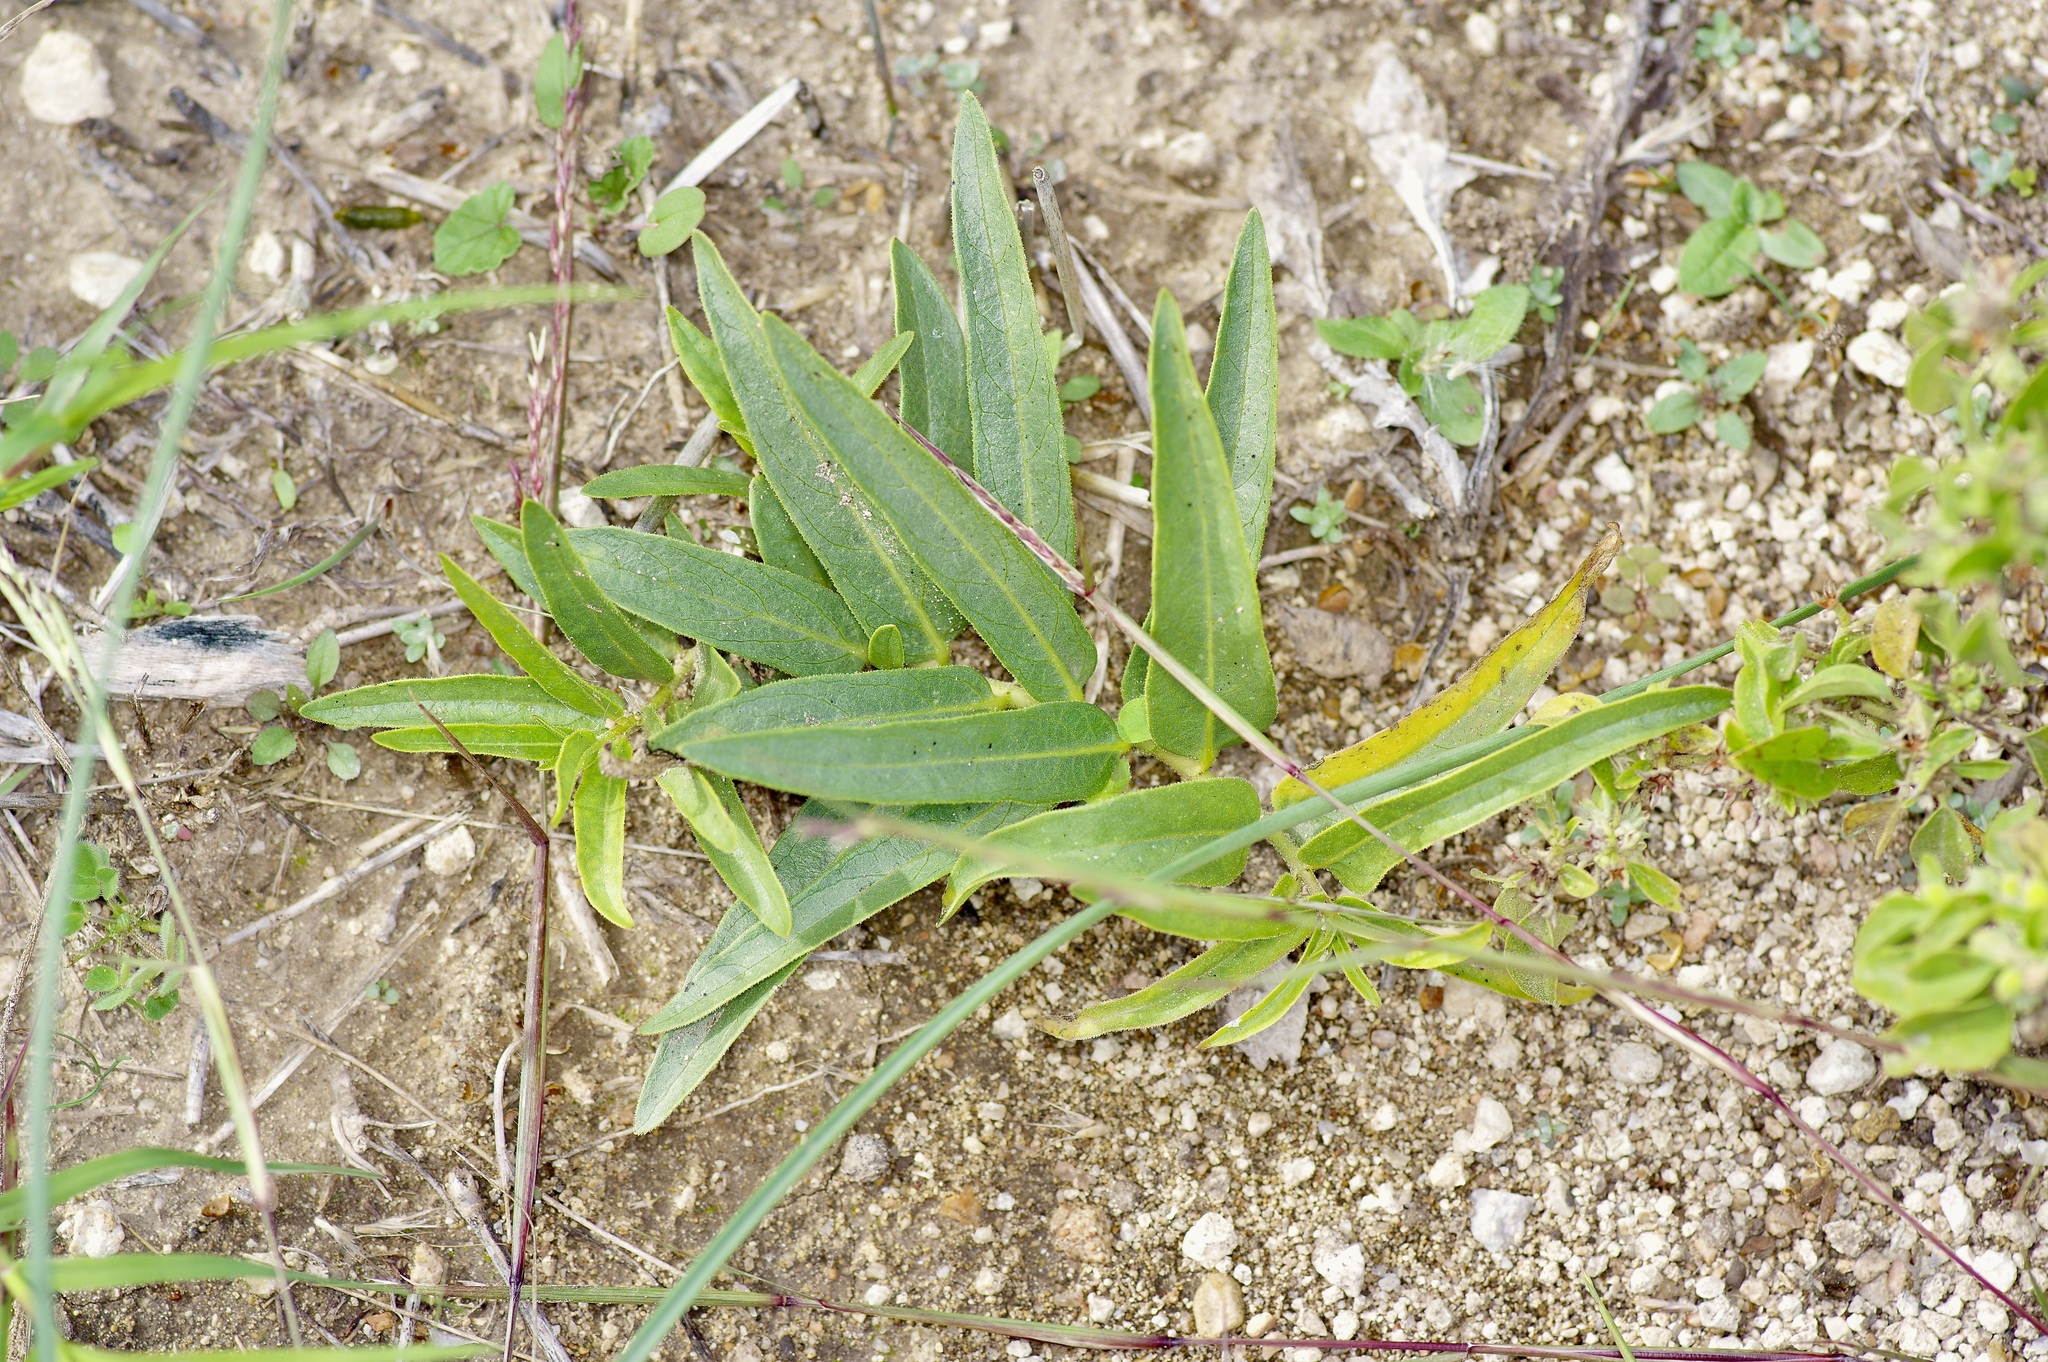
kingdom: Plantae
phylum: Tracheophyta
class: Magnoliopsida
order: Gentianales
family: Apocynaceae
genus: Asclepias
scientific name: Asclepias asperula
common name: Antelope horns
